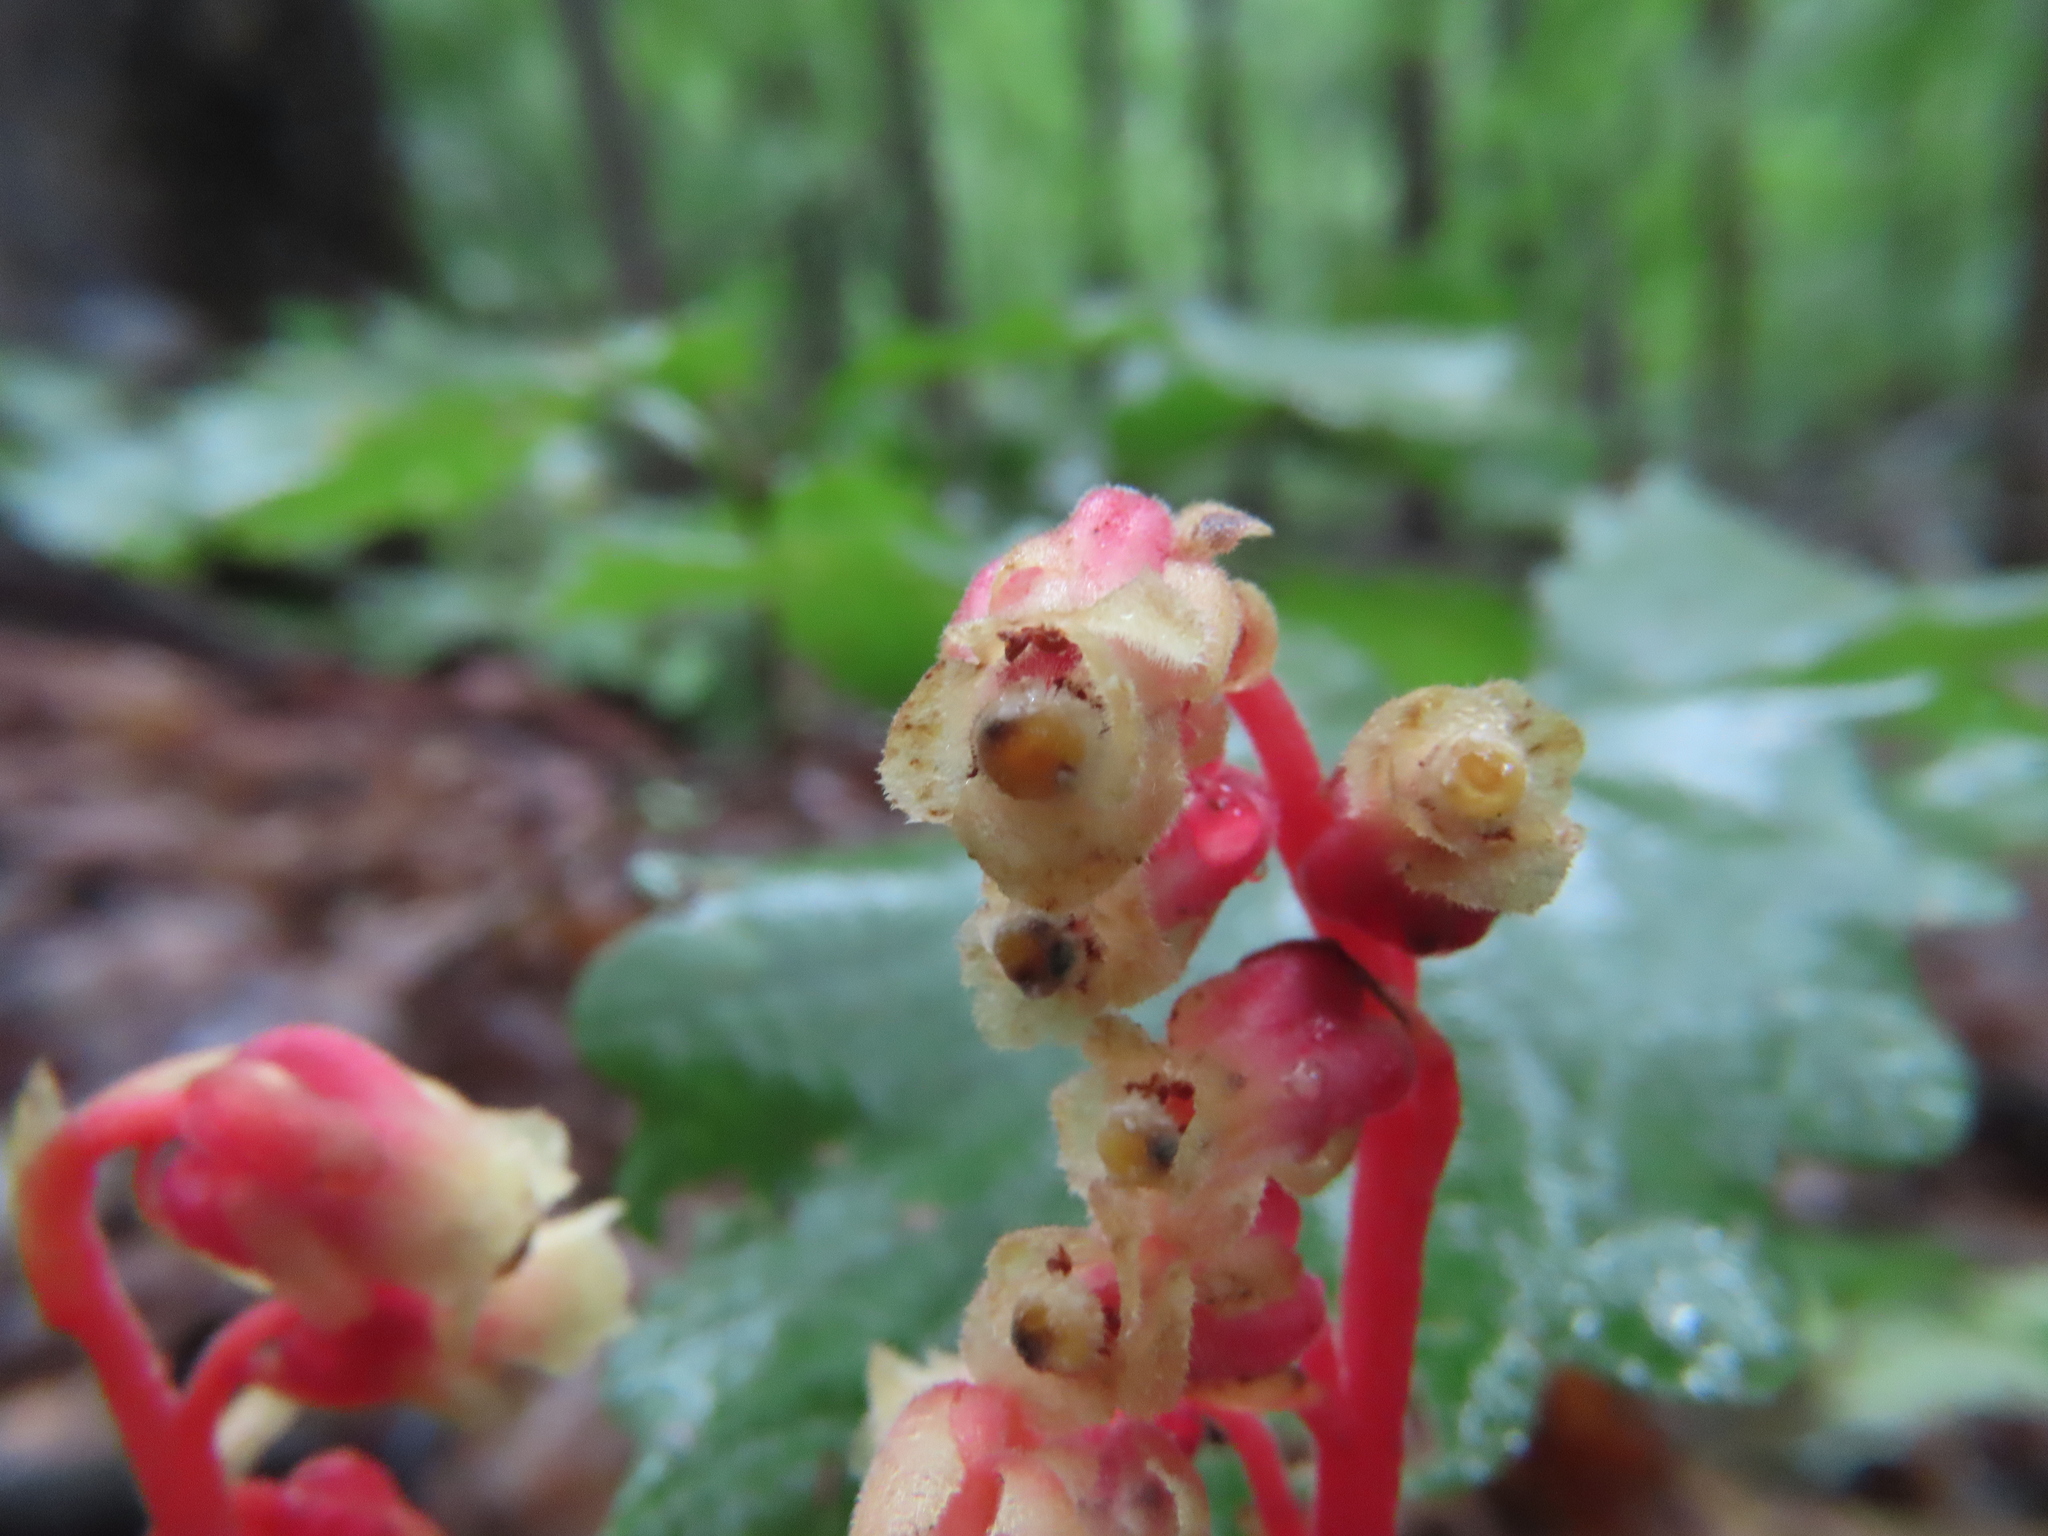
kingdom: Plantae
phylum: Tracheophyta
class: Magnoliopsida
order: Ericales
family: Ericaceae
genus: Hypopitys
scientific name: Hypopitys monotropa
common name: Yellow bird's-nest
